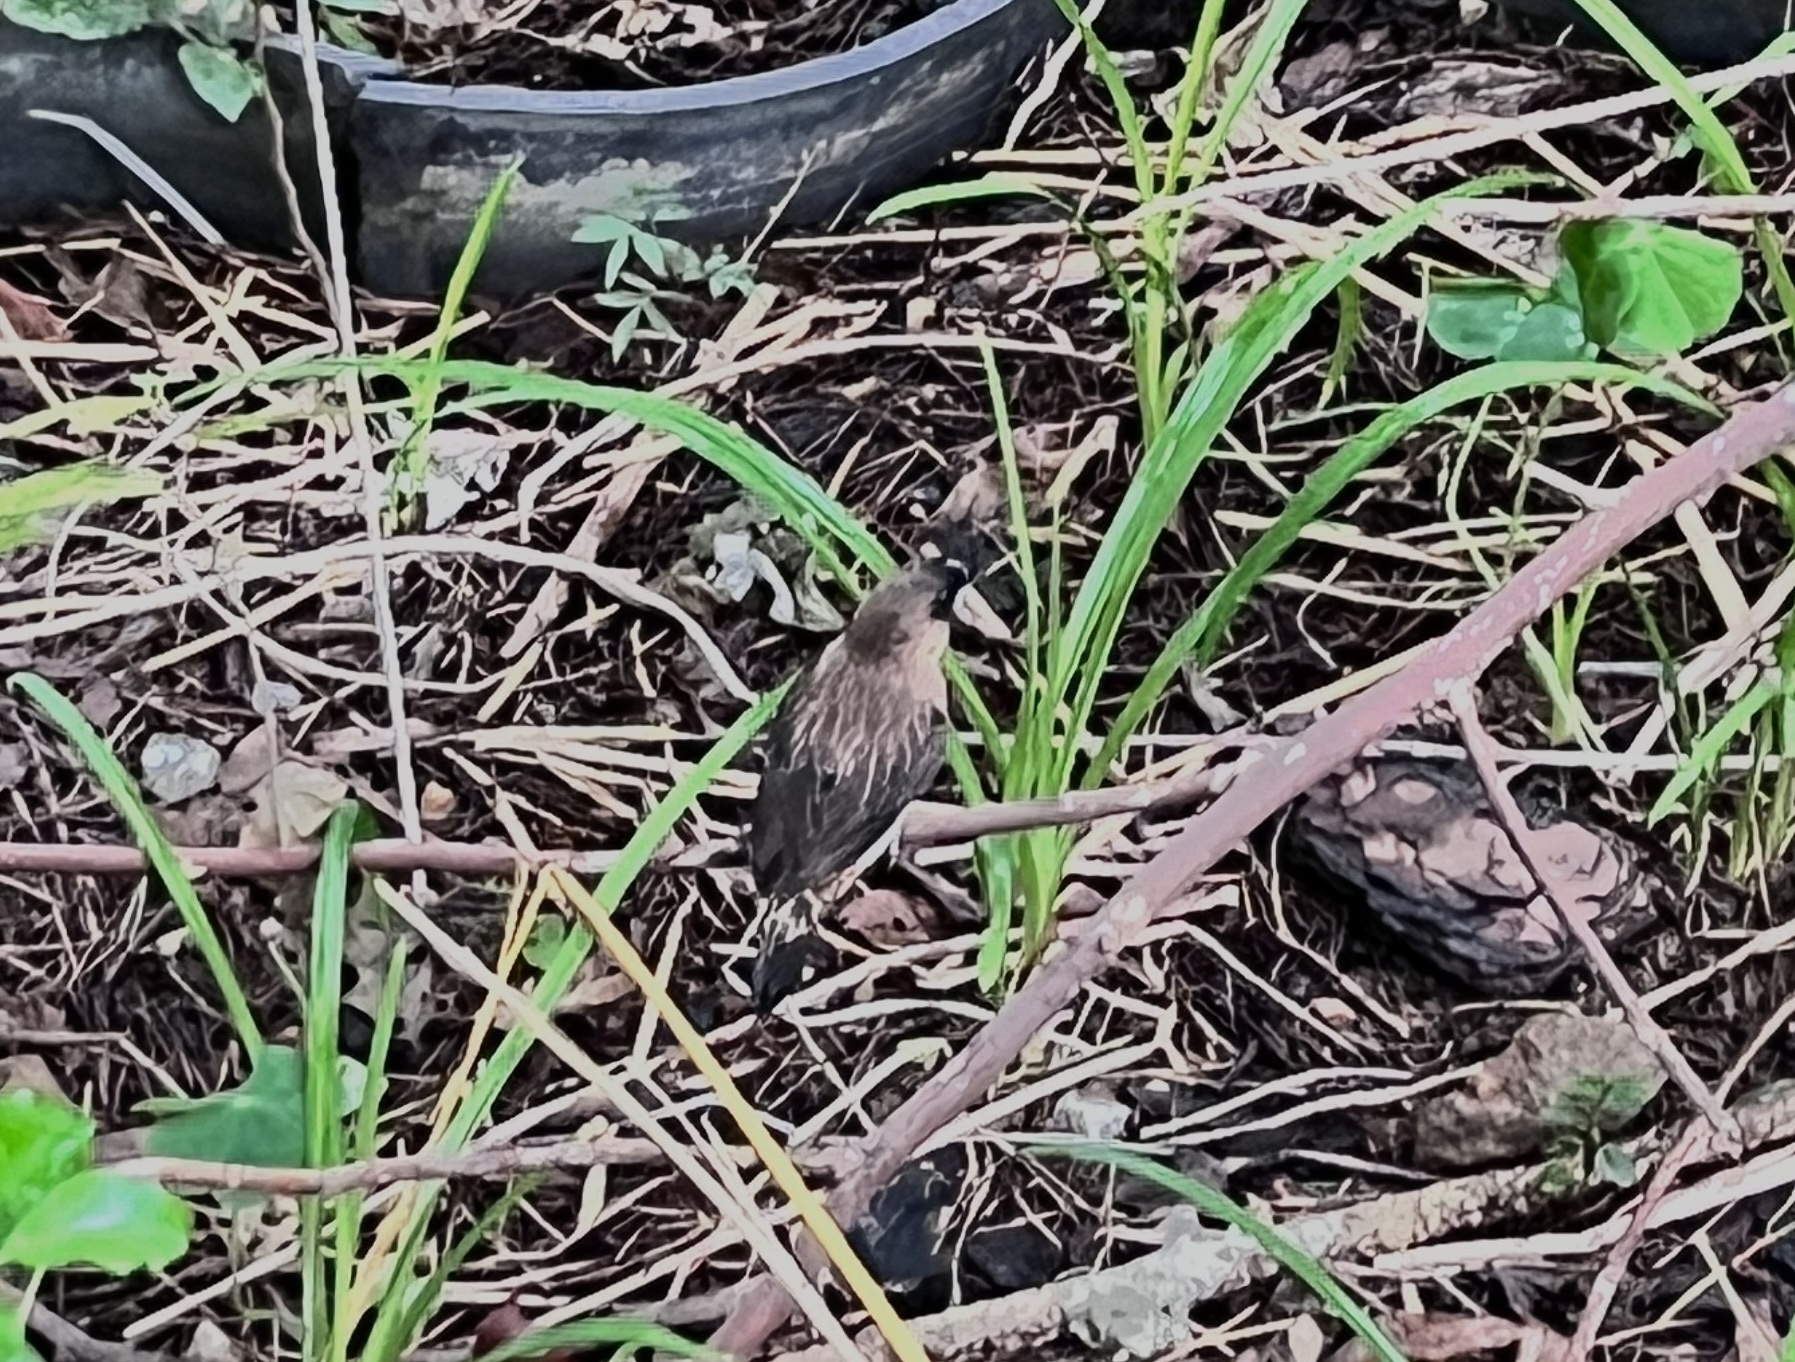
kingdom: Animalia
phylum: Chordata
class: Aves
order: Passeriformes
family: Estrildidae
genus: Lonchura
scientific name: Lonchura striata
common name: White-rumped munia
